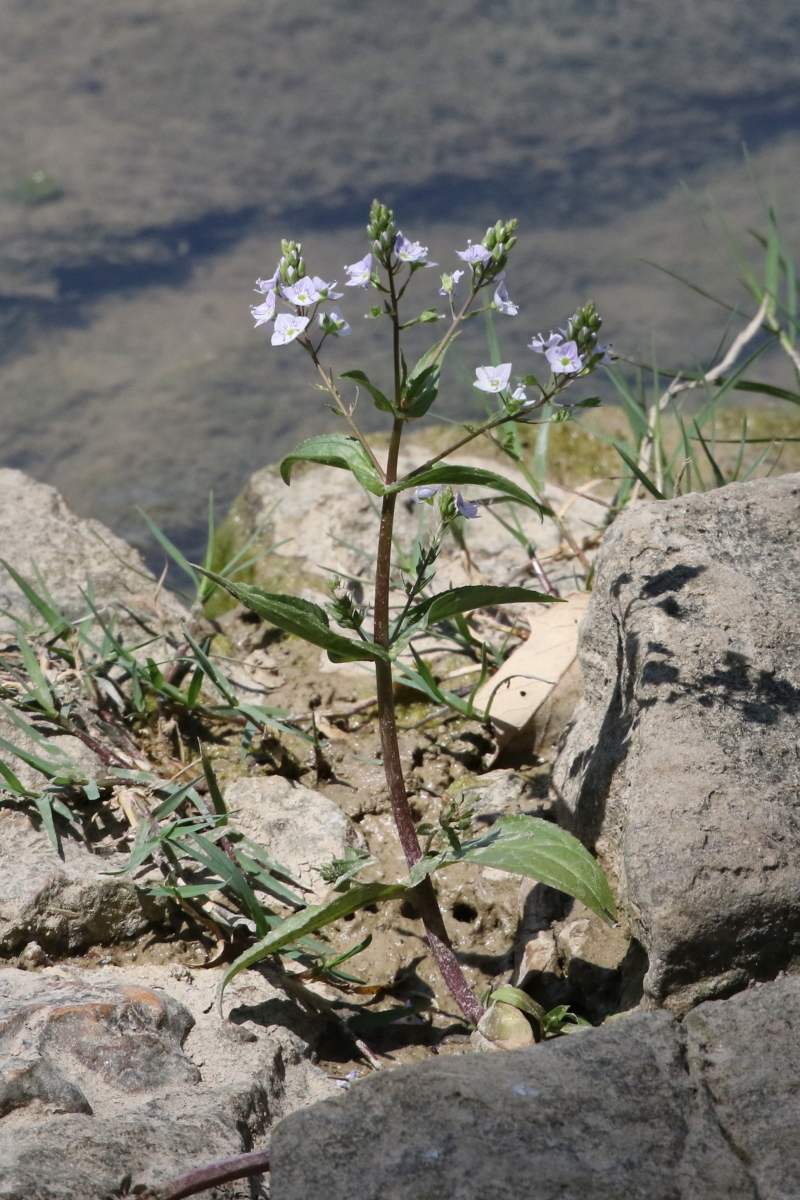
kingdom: Plantae
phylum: Tracheophyta
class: Magnoliopsida
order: Lamiales
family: Plantaginaceae
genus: Veronica
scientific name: Veronica anagallis-aquatica
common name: Water speedwell
